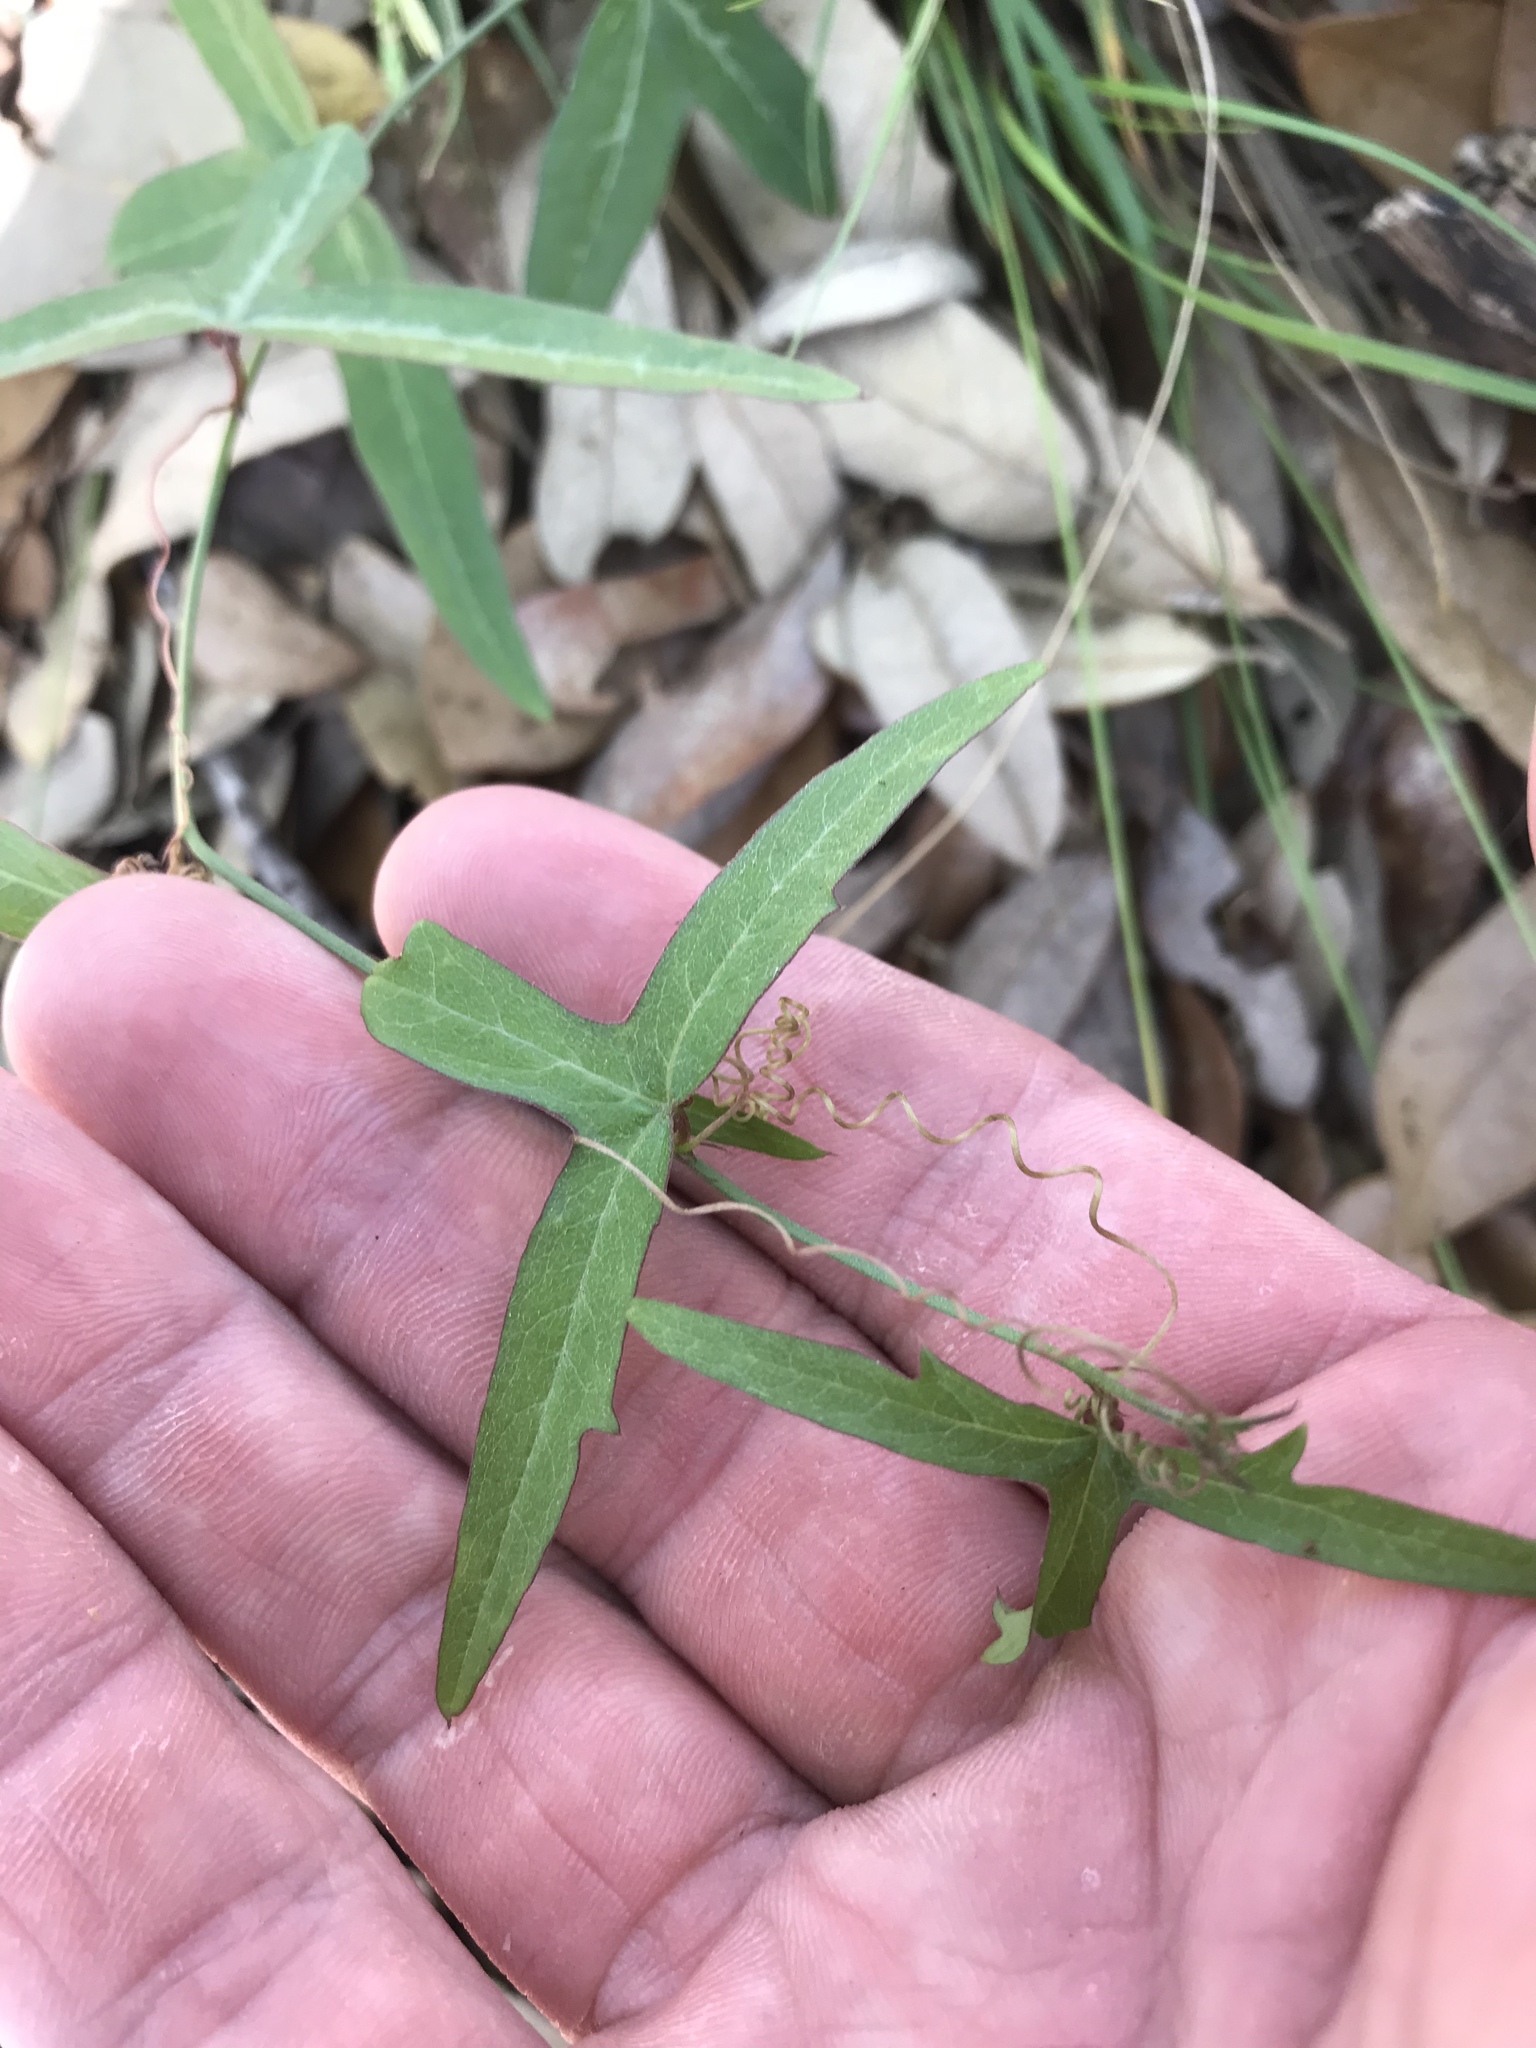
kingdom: Plantae
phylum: Tracheophyta
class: Magnoliopsida
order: Malpighiales
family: Passifloraceae
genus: Passiflora
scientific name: Passiflora tenuiloba
